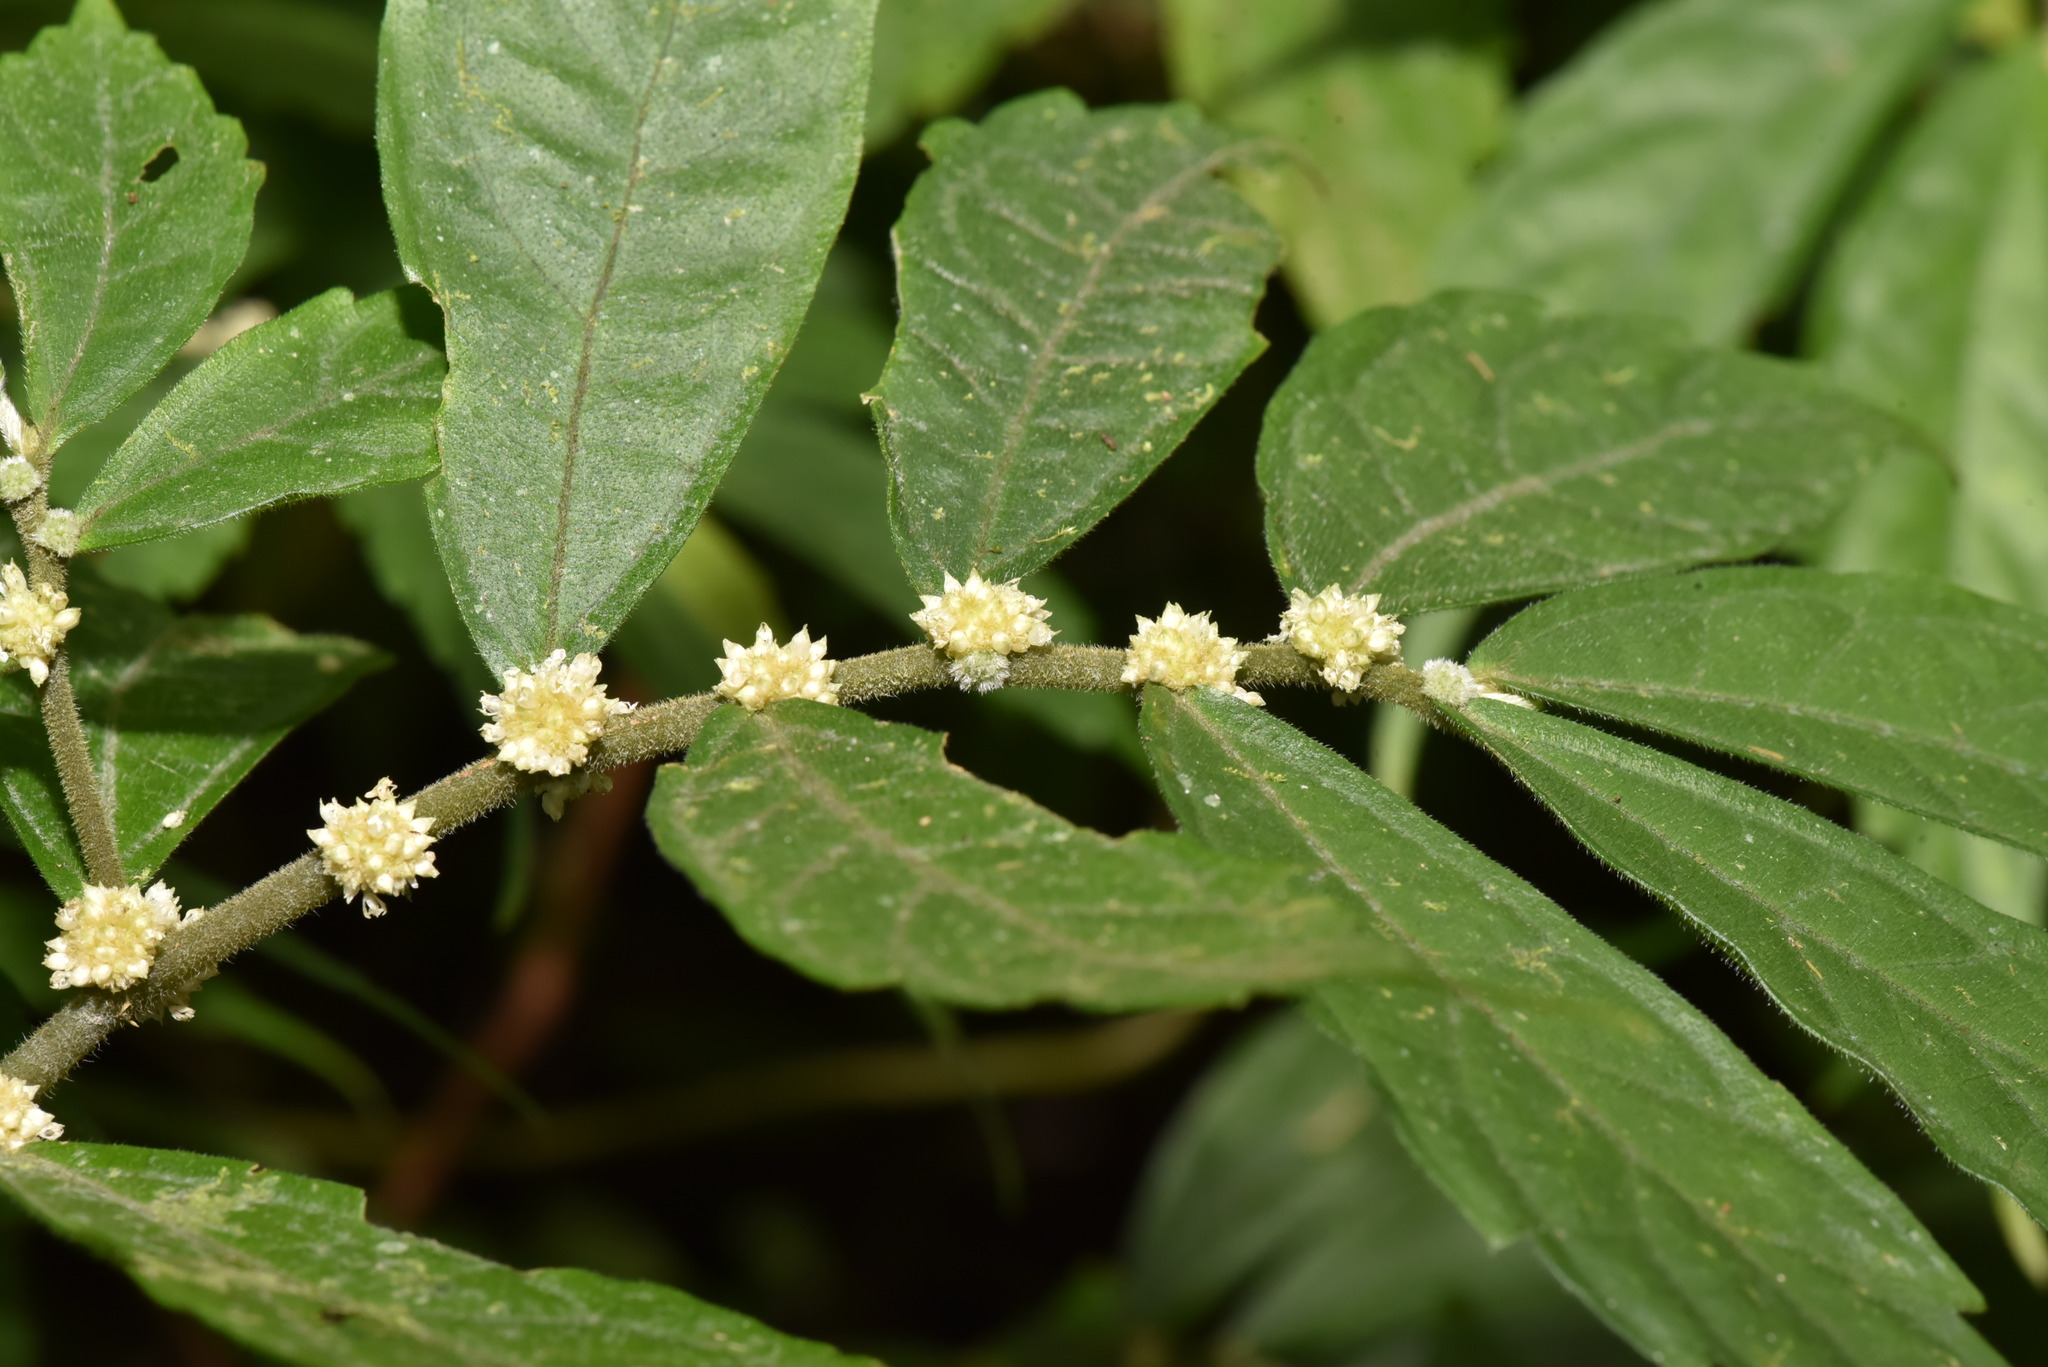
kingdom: Plantae
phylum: Tracheophyta
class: Magnoliopsida
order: Rosales
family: Urticaceae
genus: Elatostema
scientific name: Elatostema lineolatum
